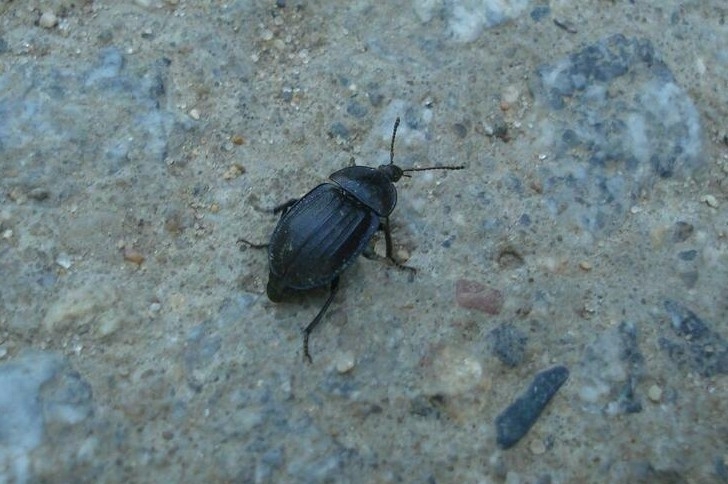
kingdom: Animalia
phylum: Arthropoda
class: Insecta
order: Coleoptera
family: Staphylinidae
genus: Silpha
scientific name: Silpha atrata
